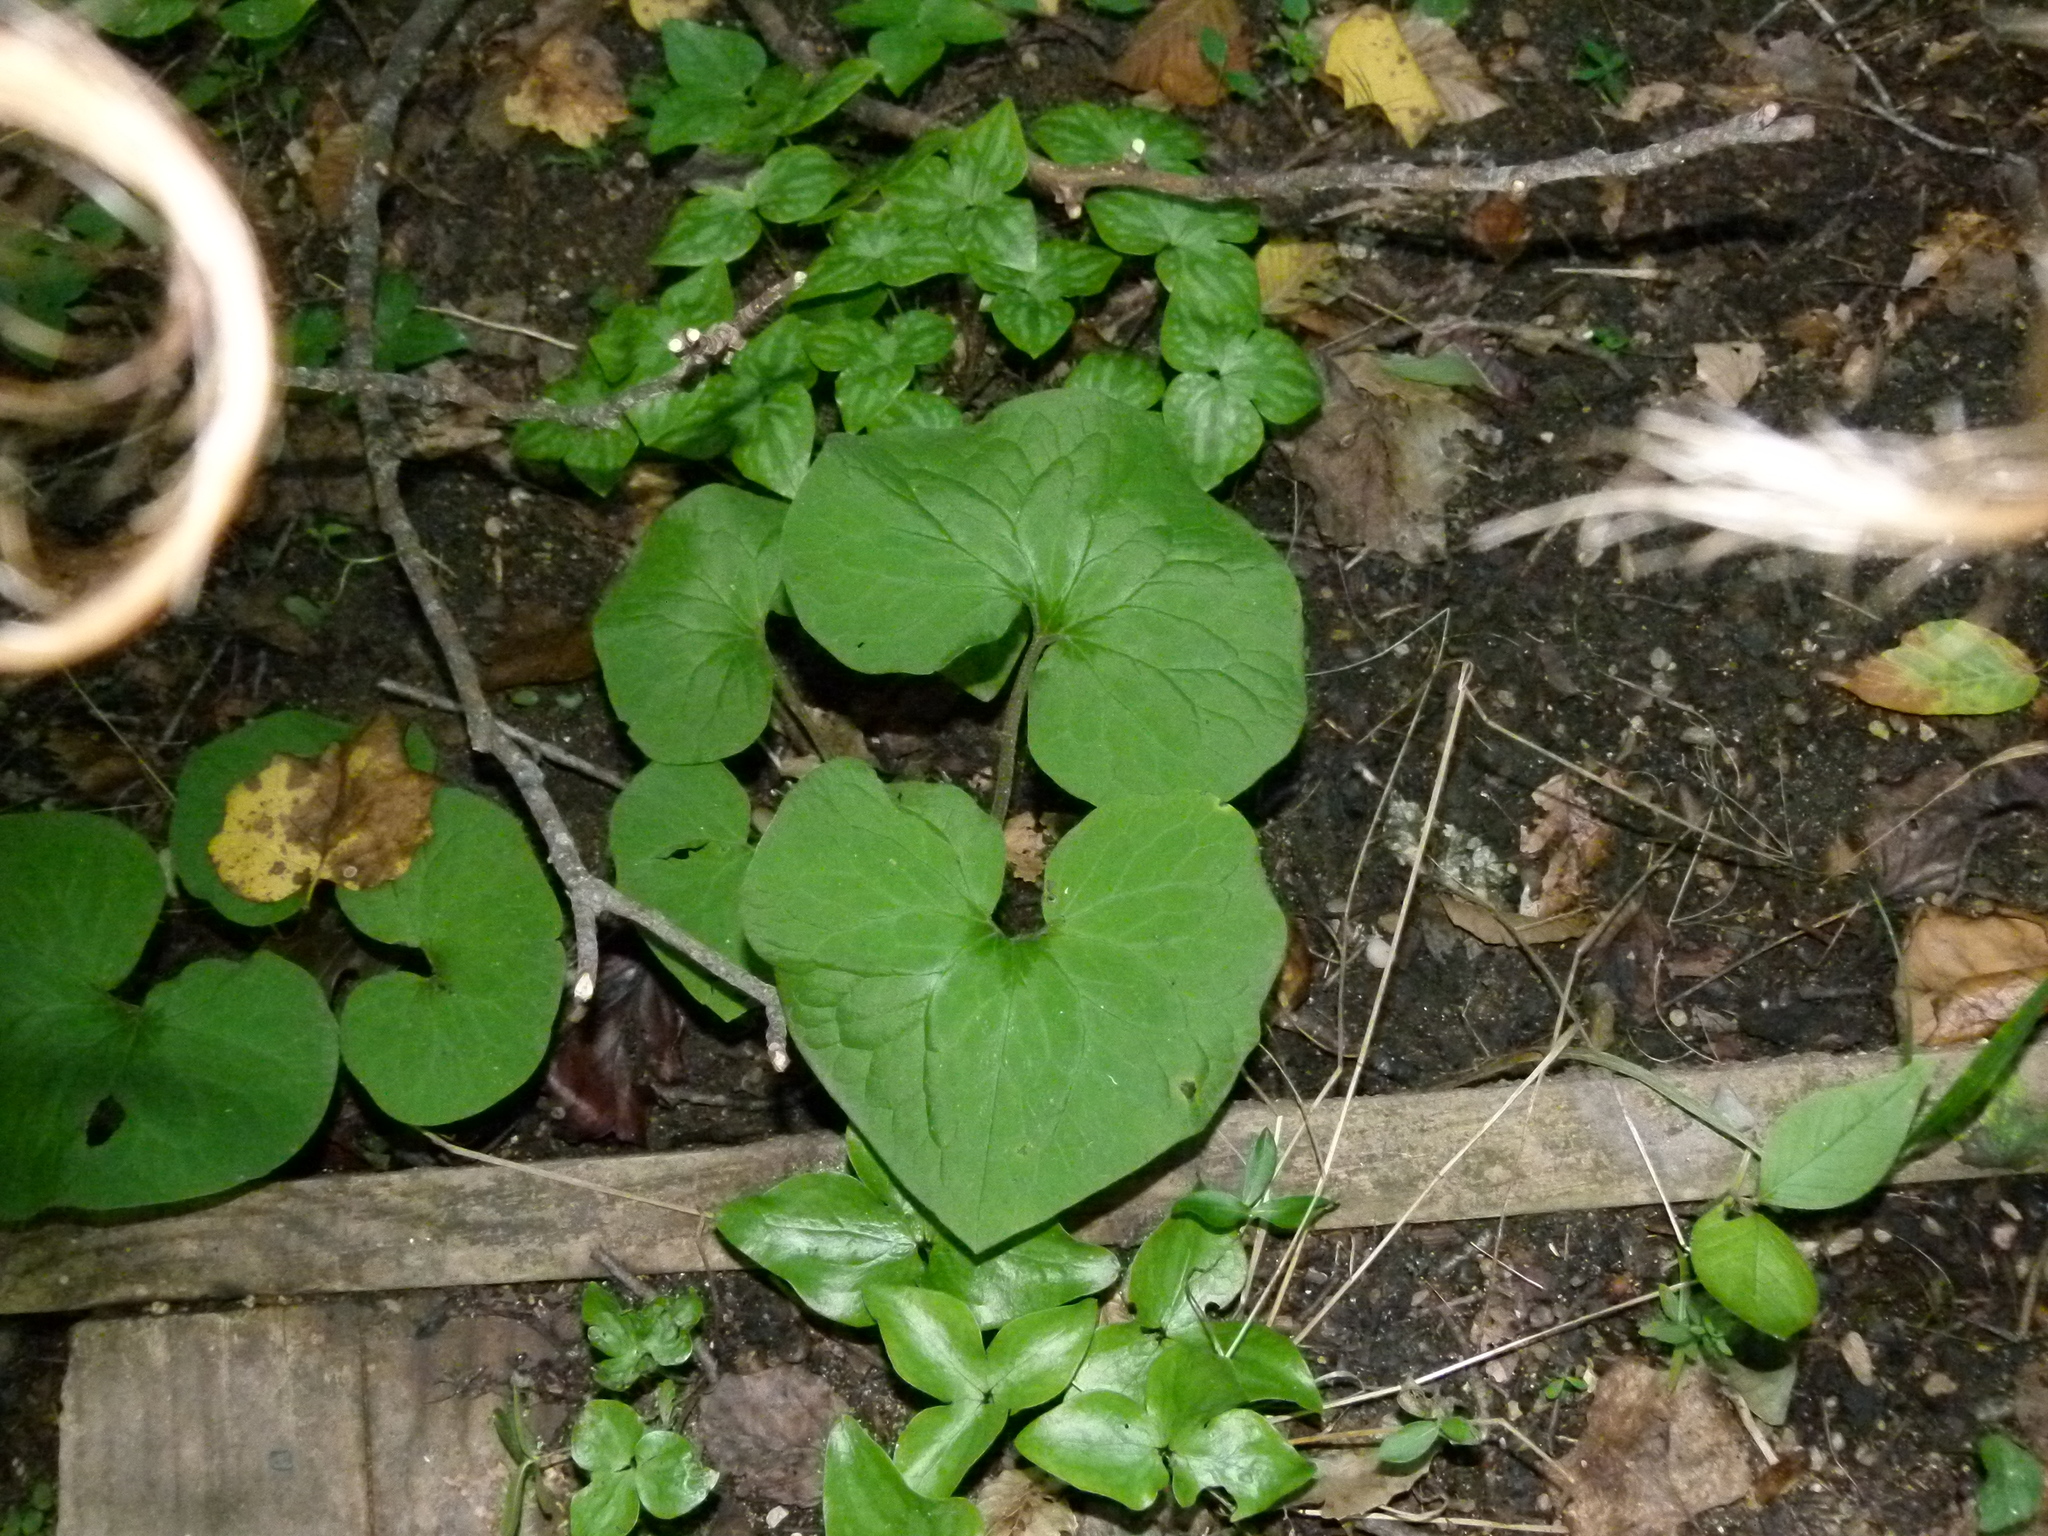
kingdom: Plantae
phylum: Tracheophyta
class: Magnoliopsida
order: Piperales
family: Aristolochiaceae
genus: Asarum
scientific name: Asarum canadense
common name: Wild ginger
